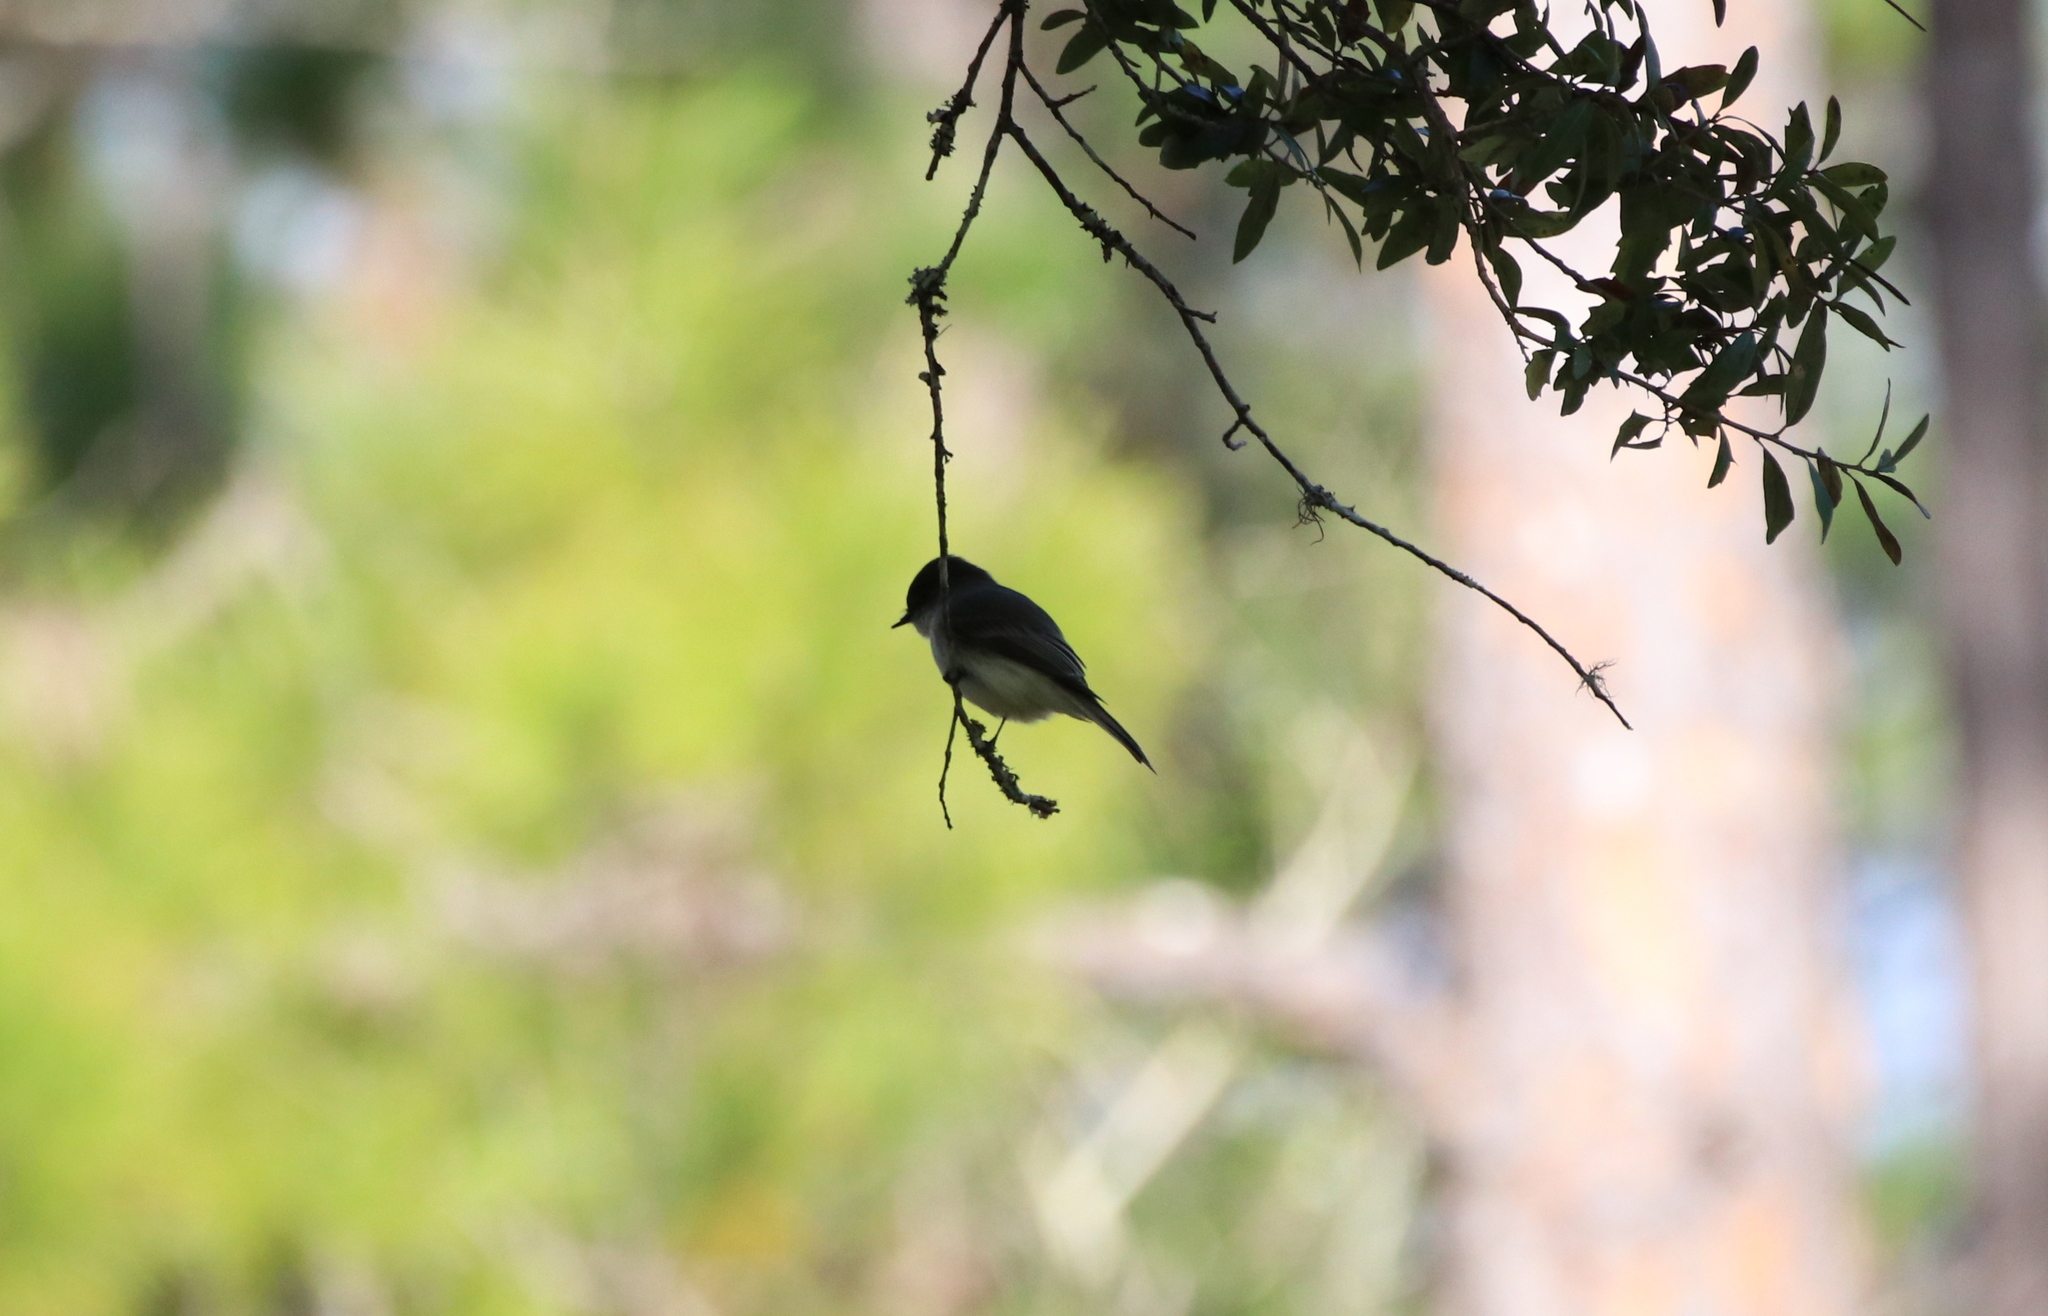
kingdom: Animalia
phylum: Chordata
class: Aves
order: Passeriformes
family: Tyrannidae
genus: Sayornis
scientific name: Sayornis phoebe
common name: Eastern phoebe
